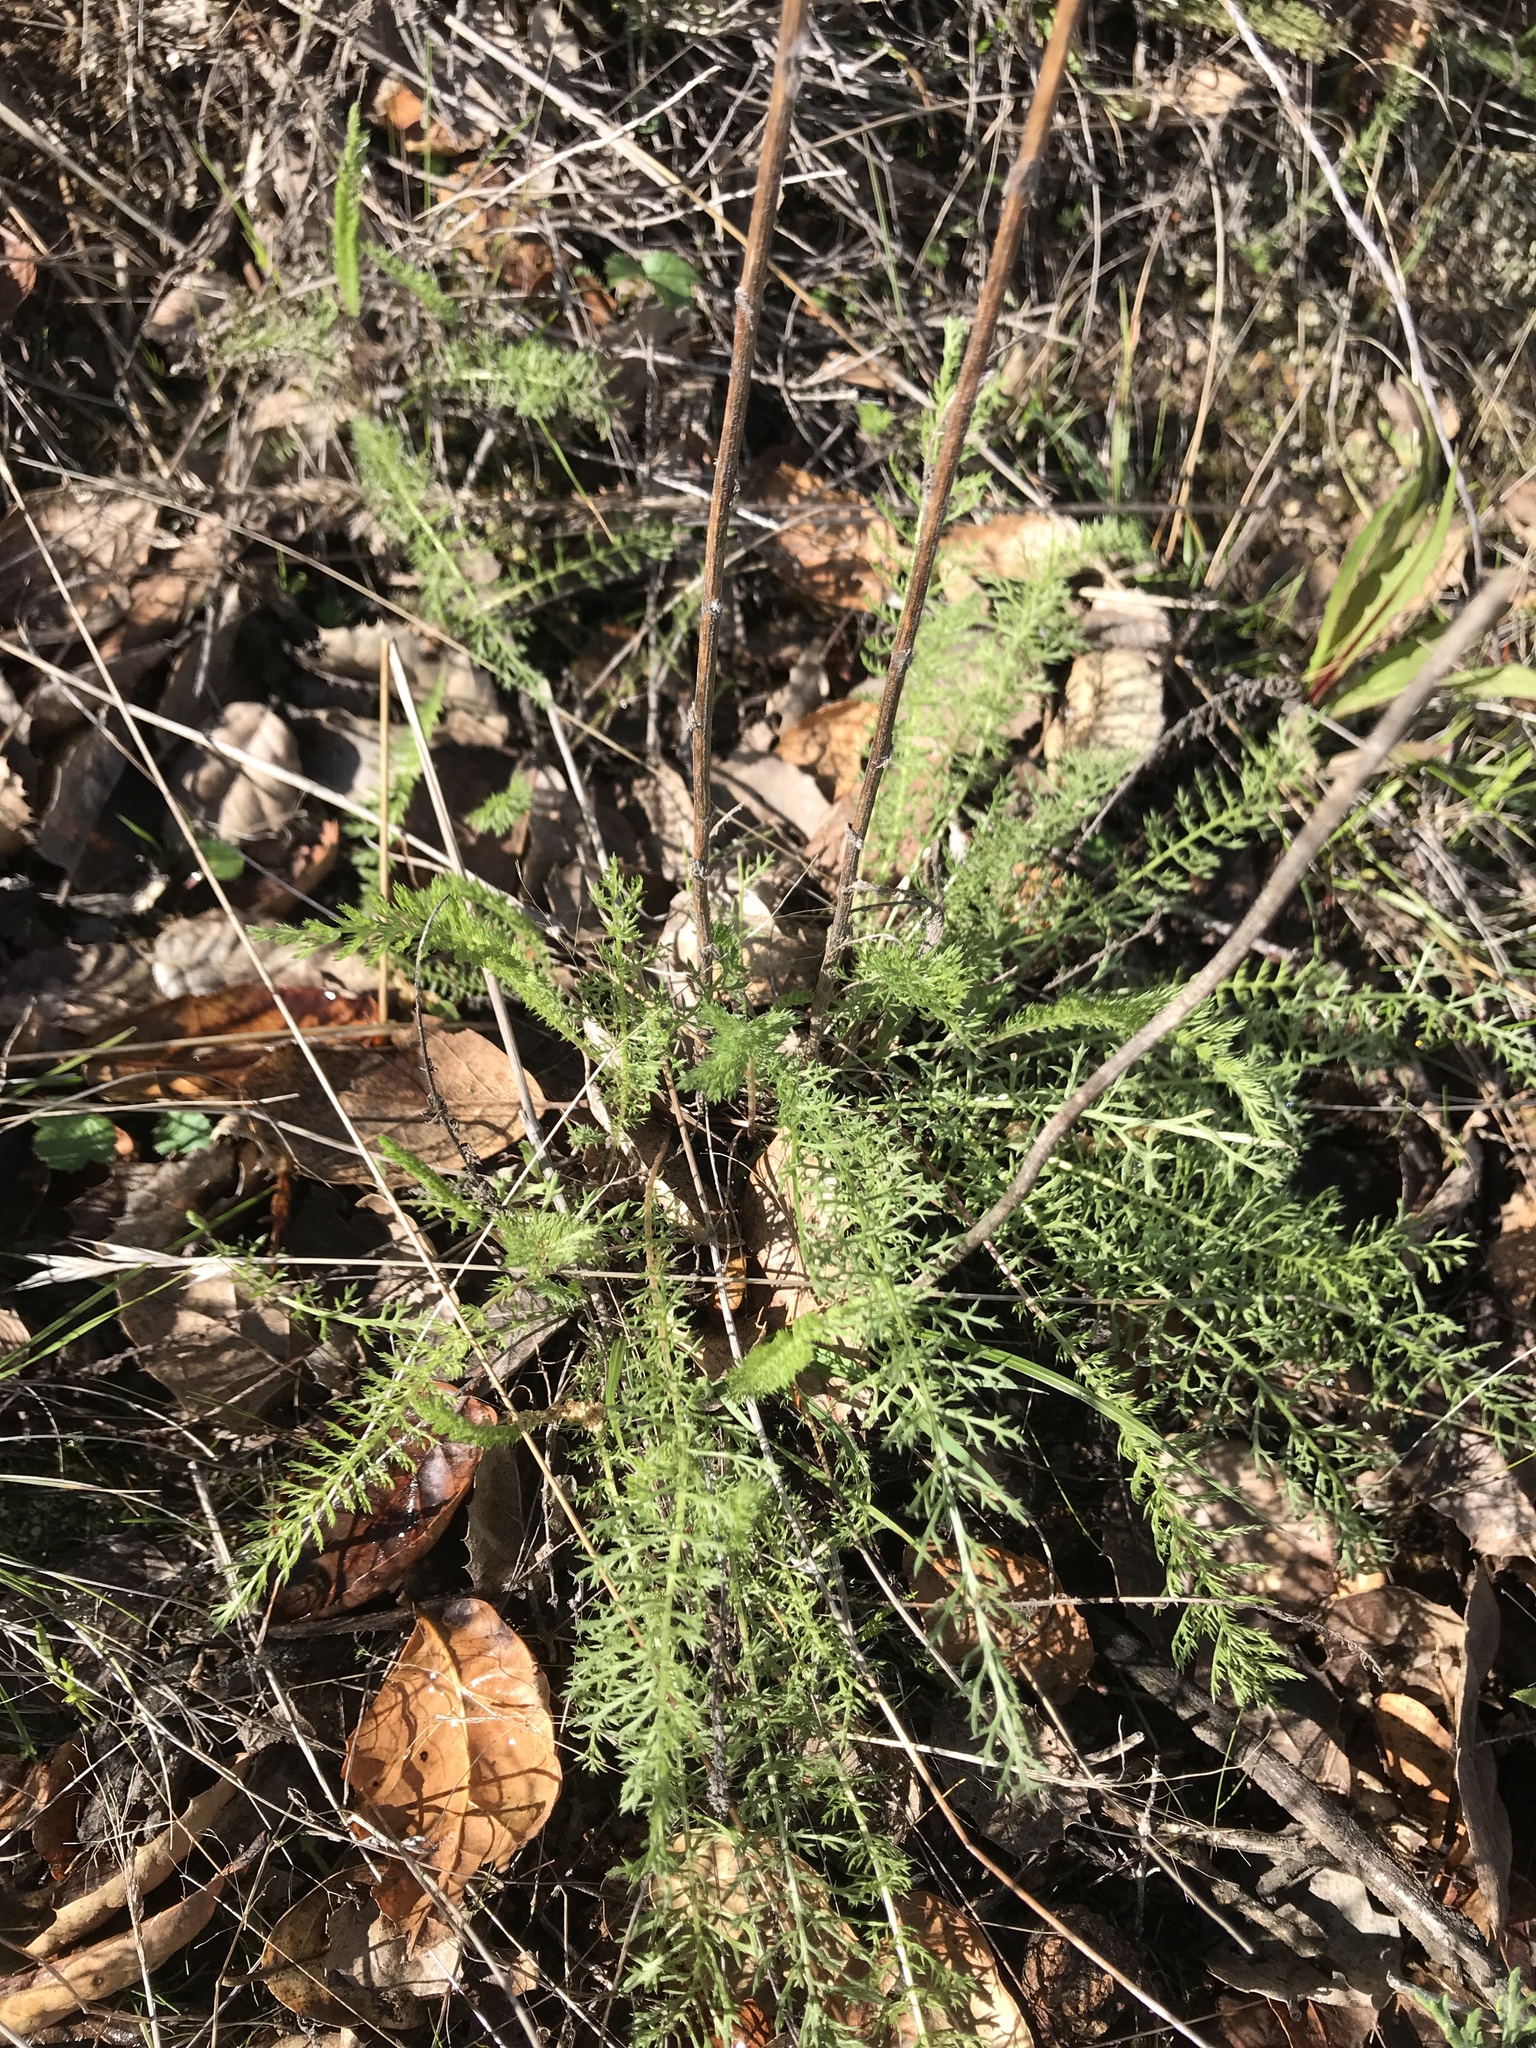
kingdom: Plantae
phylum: Tracheophyta
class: Magnoliopsida
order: Asterales
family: Asteraceae
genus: Achillea
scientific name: Achillea millefolium
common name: Yarrow
